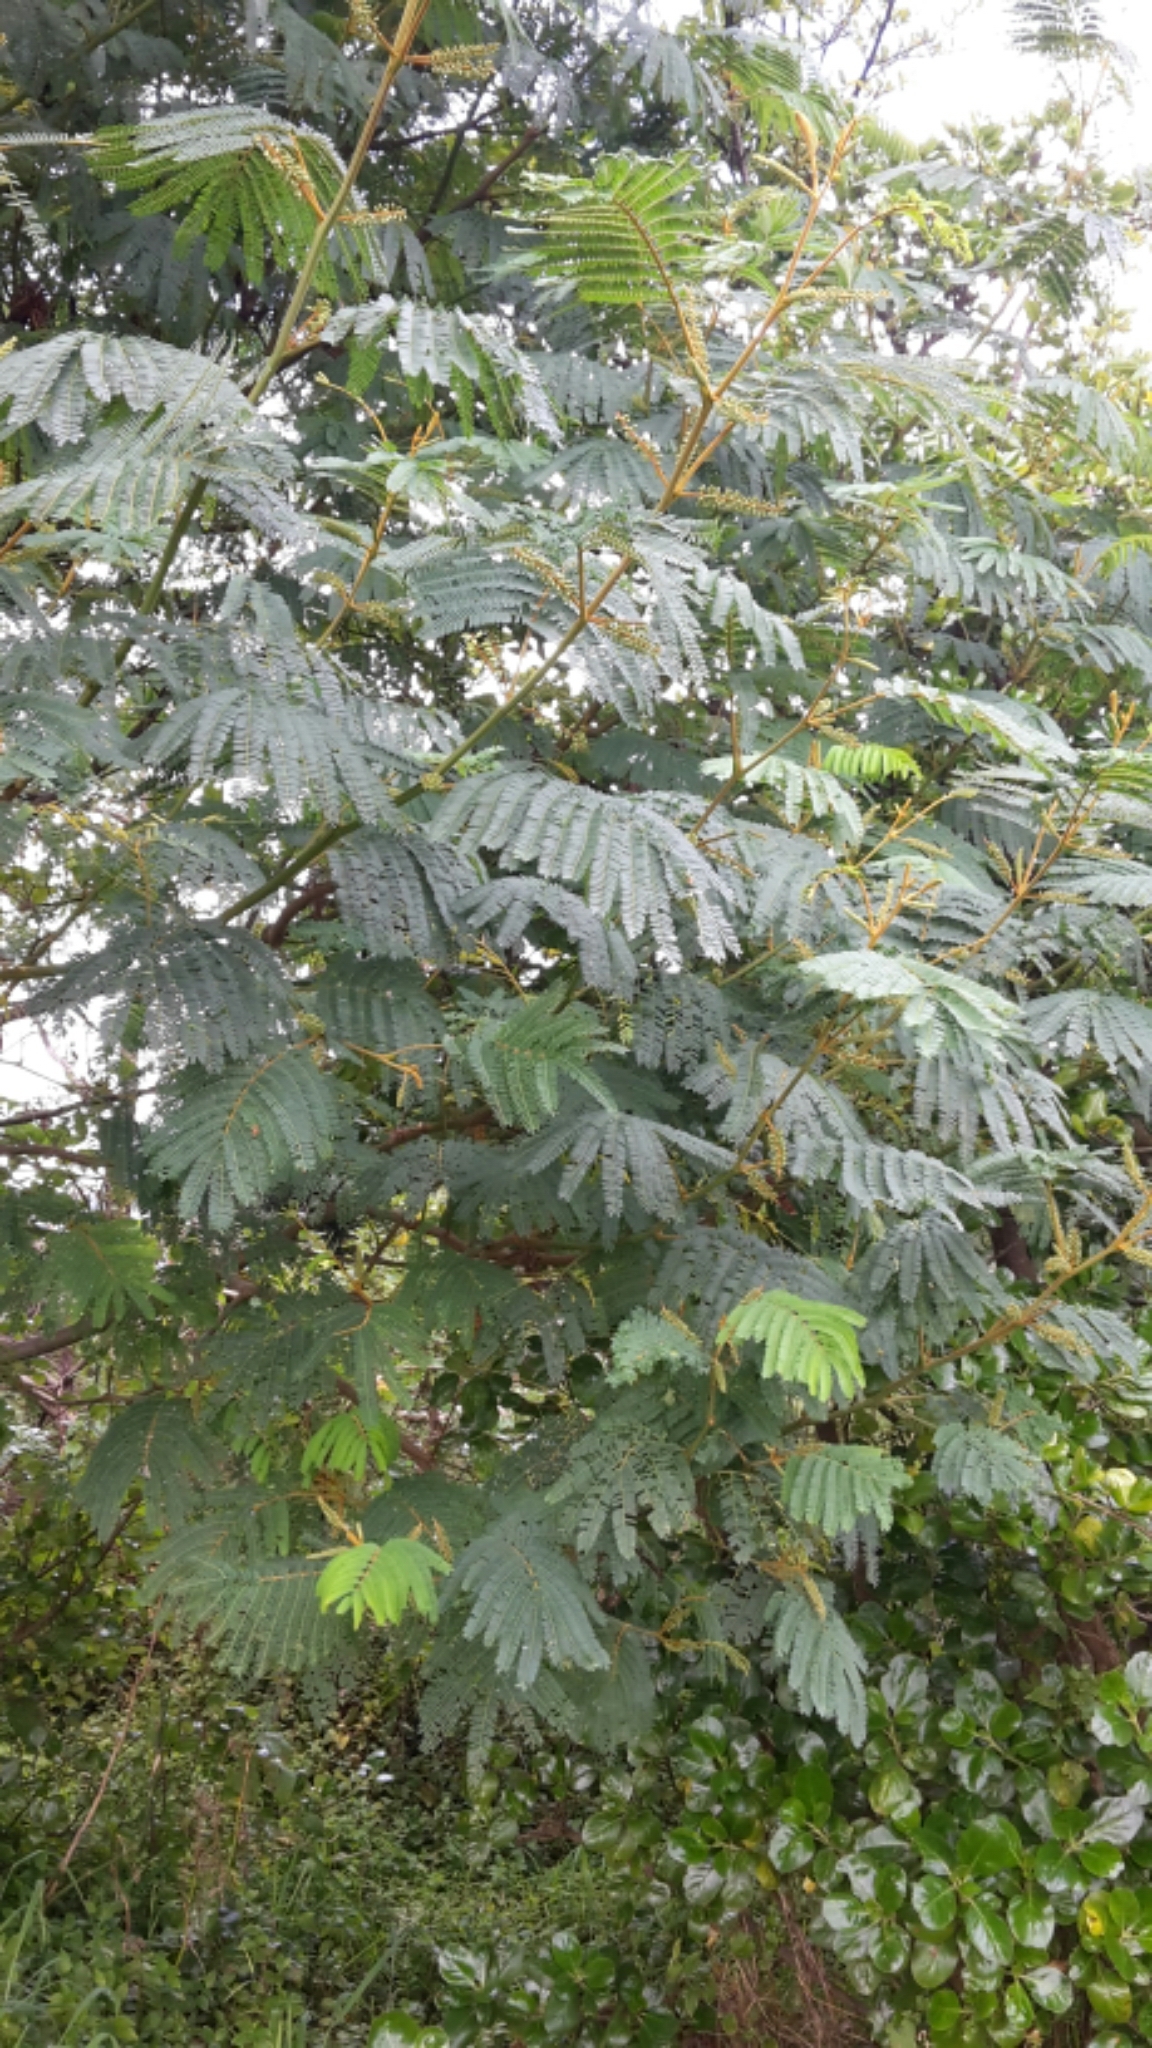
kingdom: Plantae
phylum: Tracheophyta
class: Magnoliopsida
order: Fabales
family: Fabaceae
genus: Paraserianthes
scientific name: Paraserianthes lophantha
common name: Plume albizia
